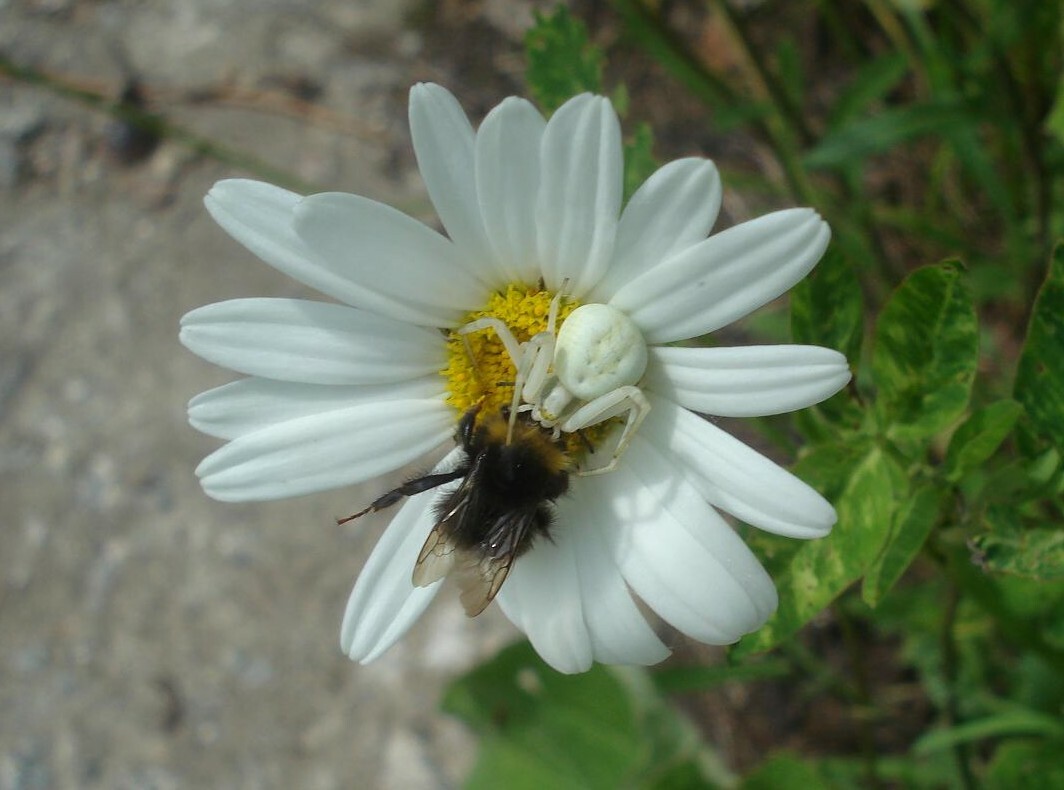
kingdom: Animalia
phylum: Arthropoda
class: Arachnida
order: Araneae
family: Thomisidae
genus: Misumena
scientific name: Misumena vatia
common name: Goldenrod crab spider
